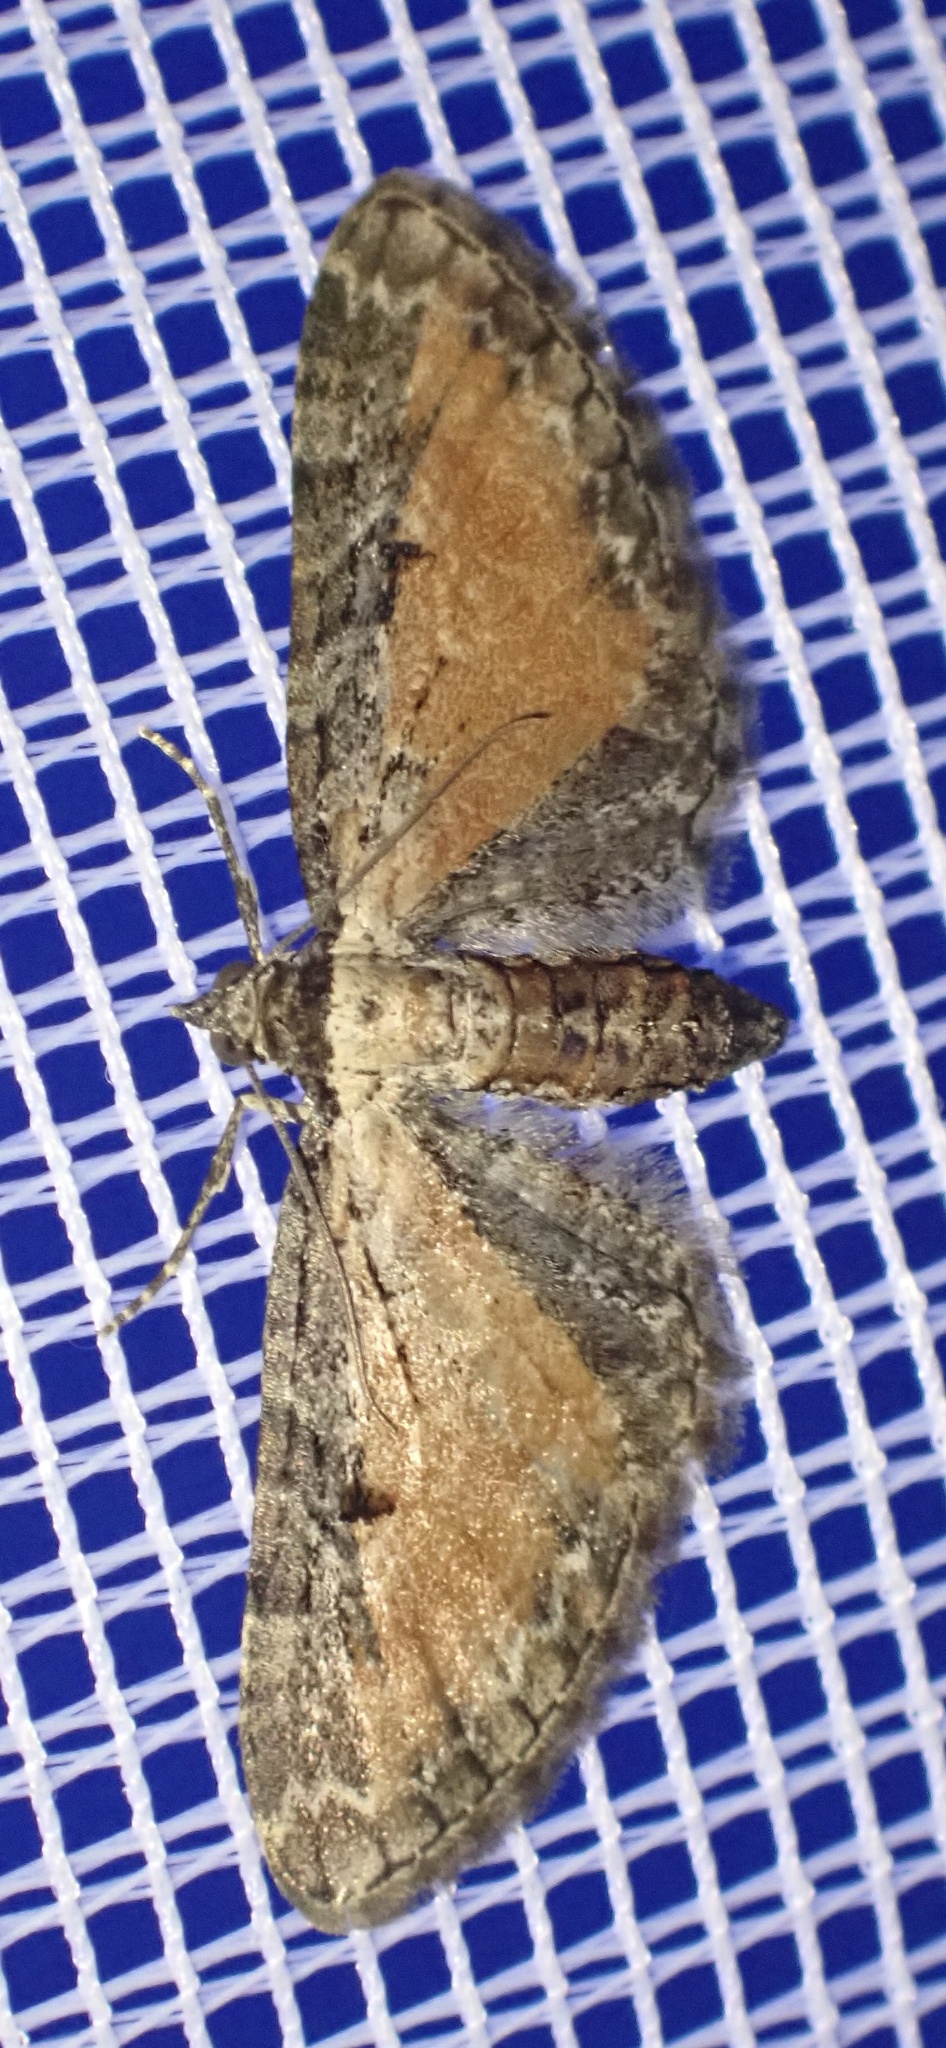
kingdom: Animalia
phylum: Arthropoda
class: Insecta
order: Lepidoptera
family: Geometridae
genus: Eupithecia
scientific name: Eupithecia icterata
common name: Tawny speckled pug
